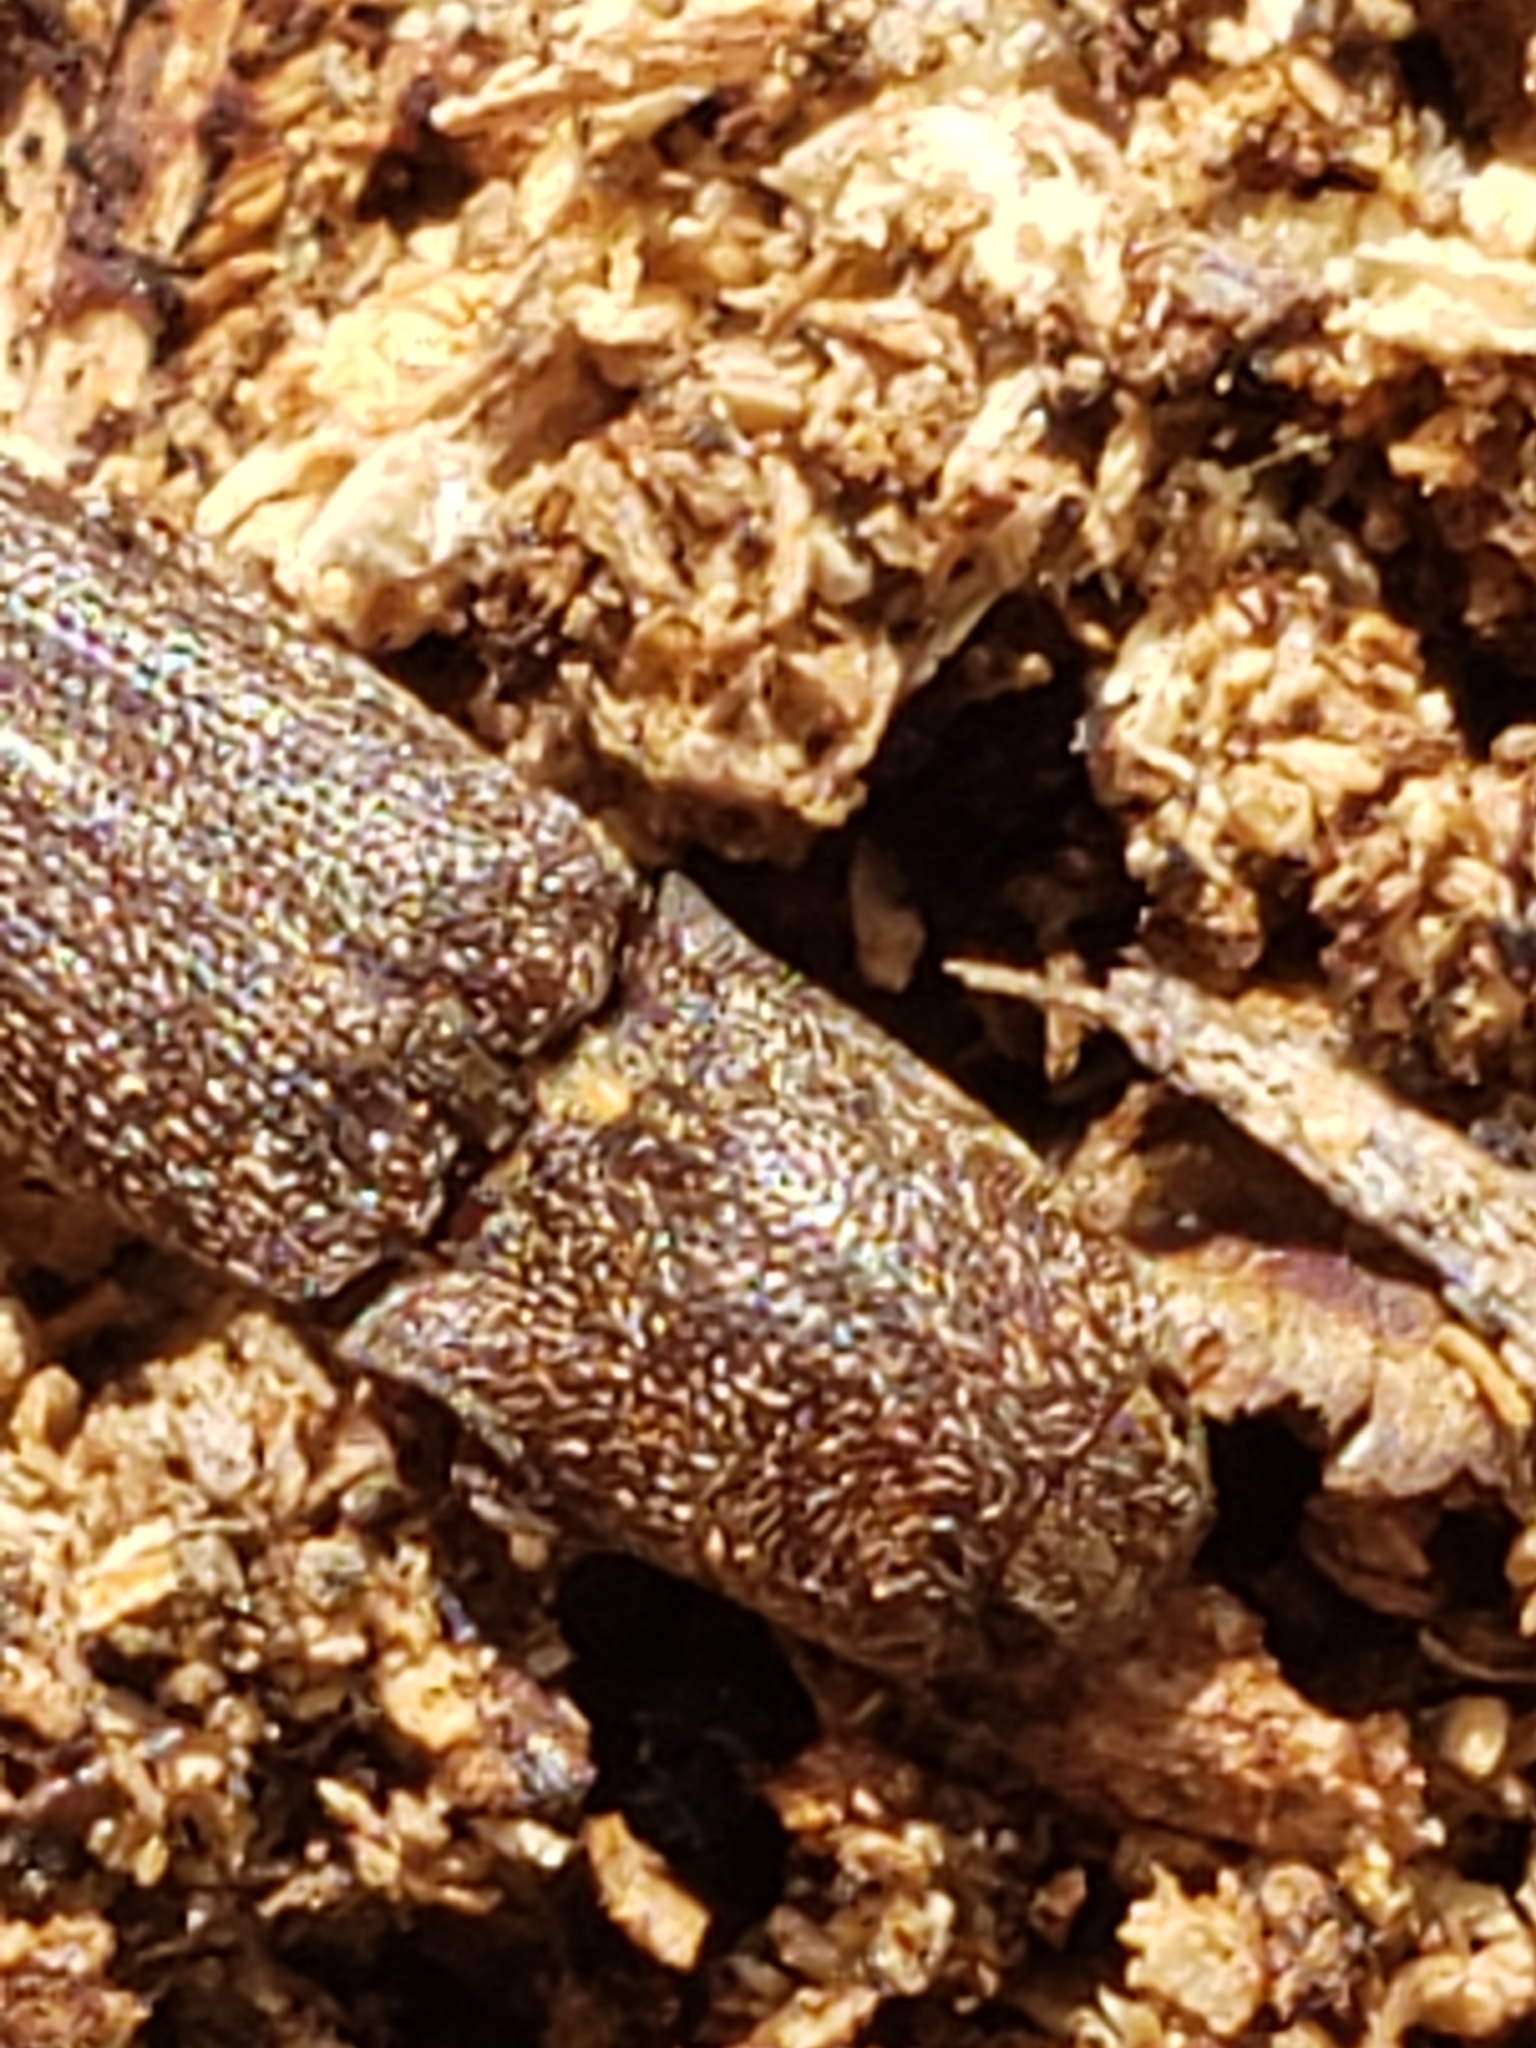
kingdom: Animalia
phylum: Arthropoda
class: Insecta
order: Coleoptera
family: Elateridae
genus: Lacon
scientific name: Lacon impressicollis
